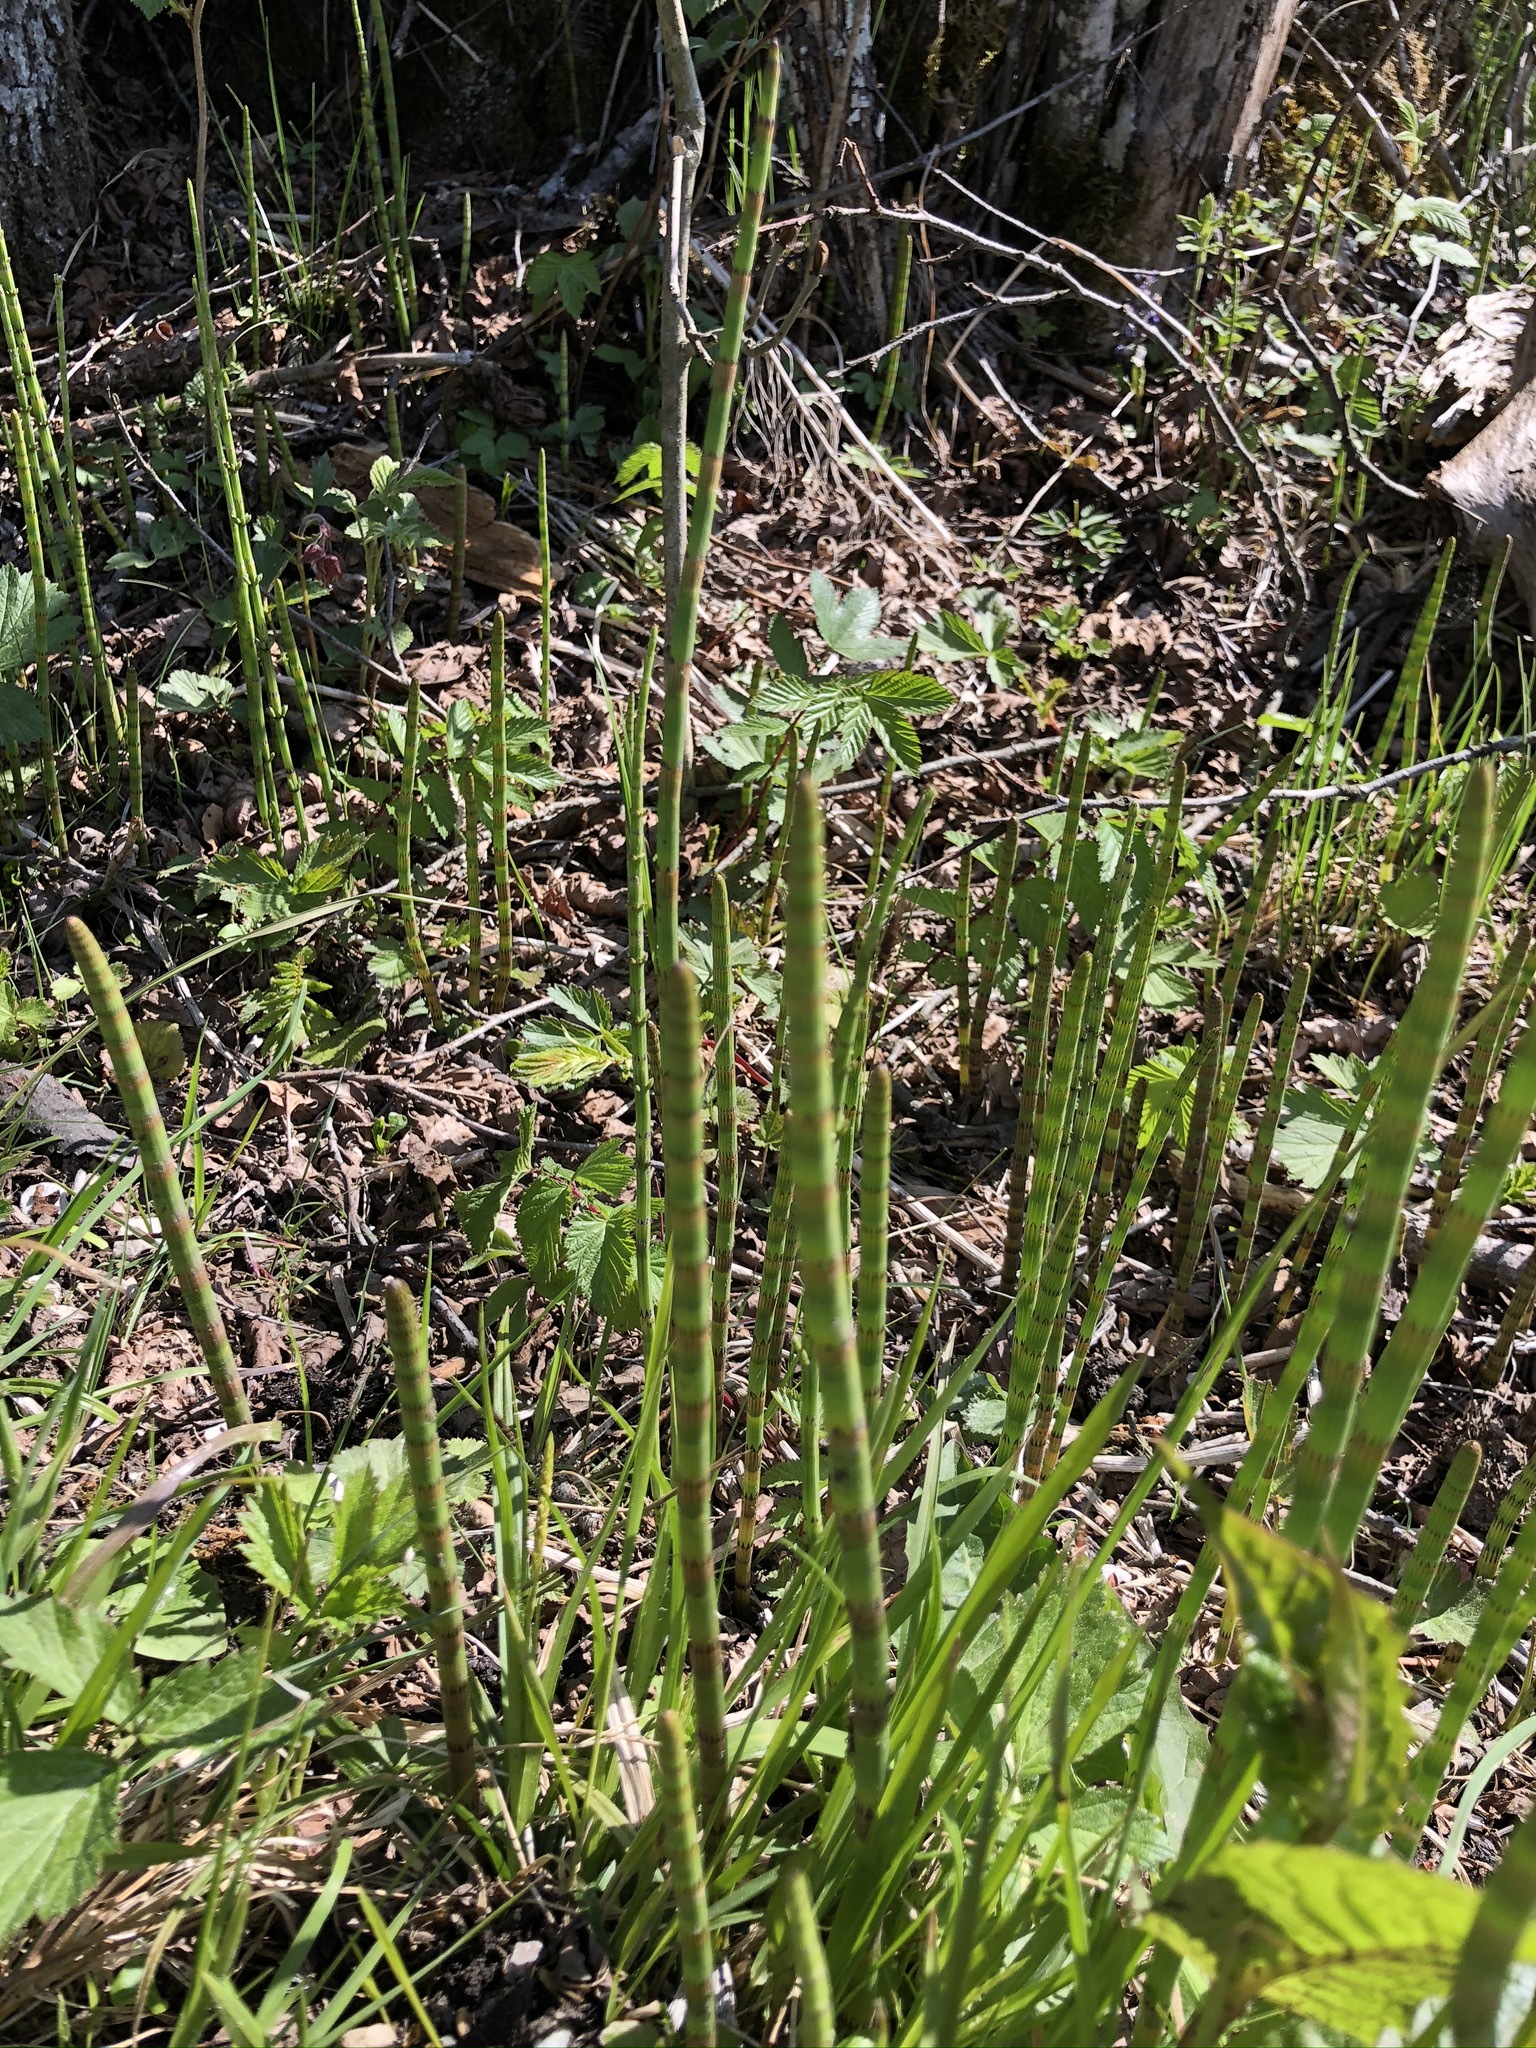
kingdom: Plantae
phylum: Tracheophyta
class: Polypodiopsida
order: Equisetales
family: Equisetaceae
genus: Equisetum
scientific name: Equisetum fluviatile
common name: Water horsetail
